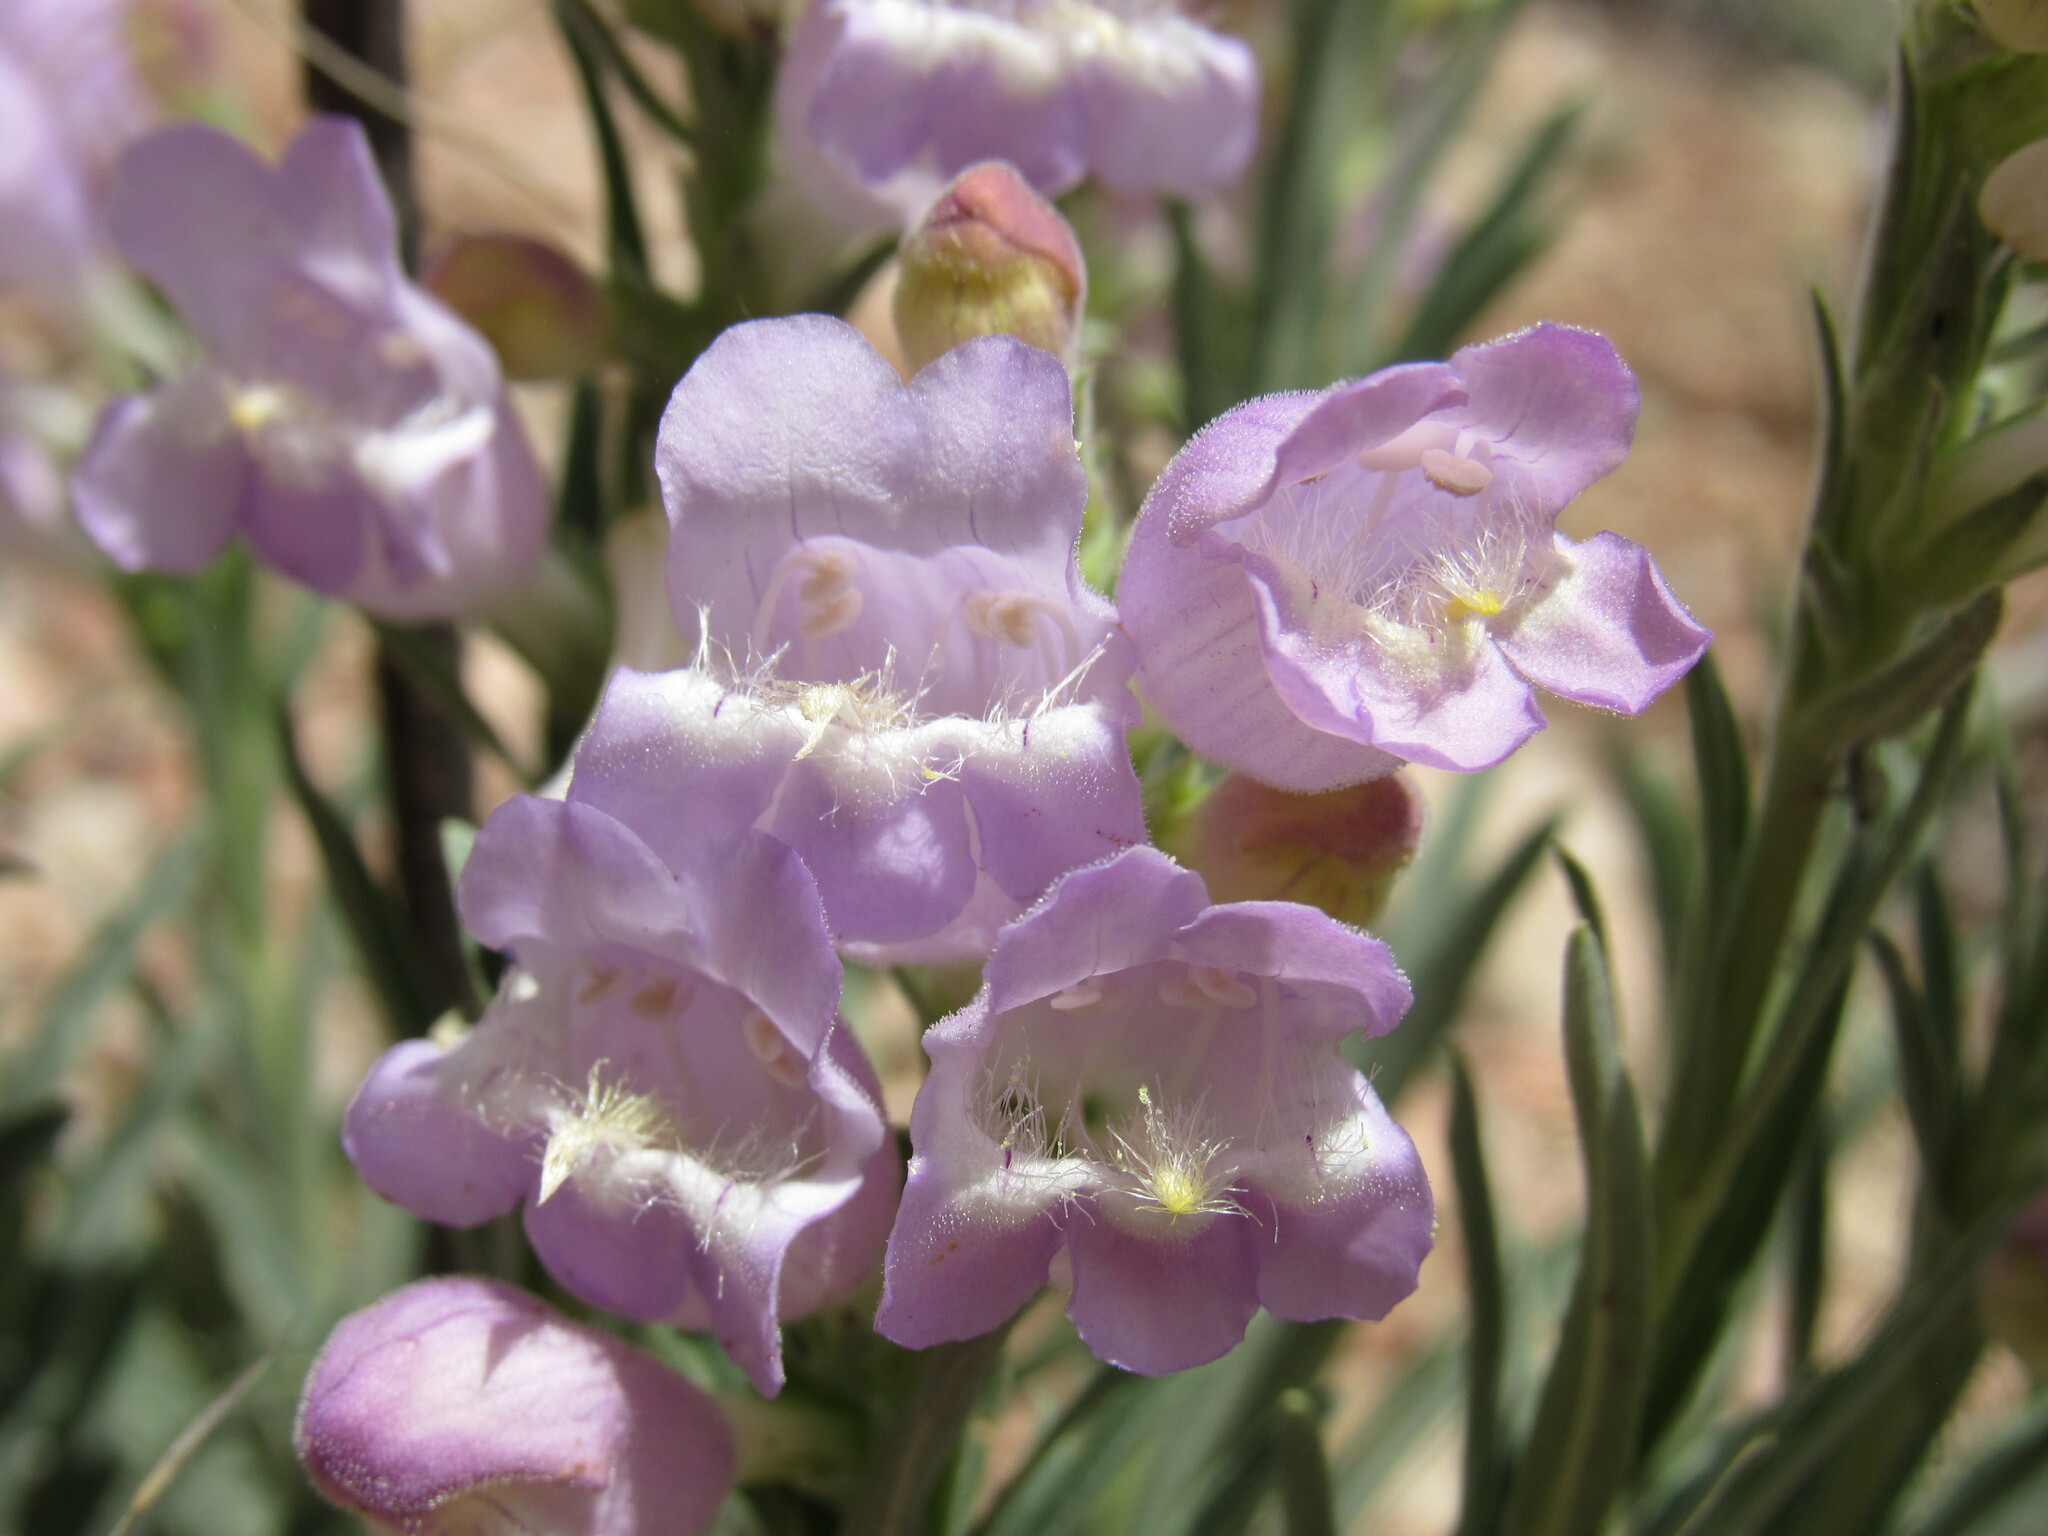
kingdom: Plantae
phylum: Tracheophyta
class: Magnoliopsida
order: Lamiales
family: Plantaginaceae
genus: Penstemon
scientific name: Penstemon jamesii
